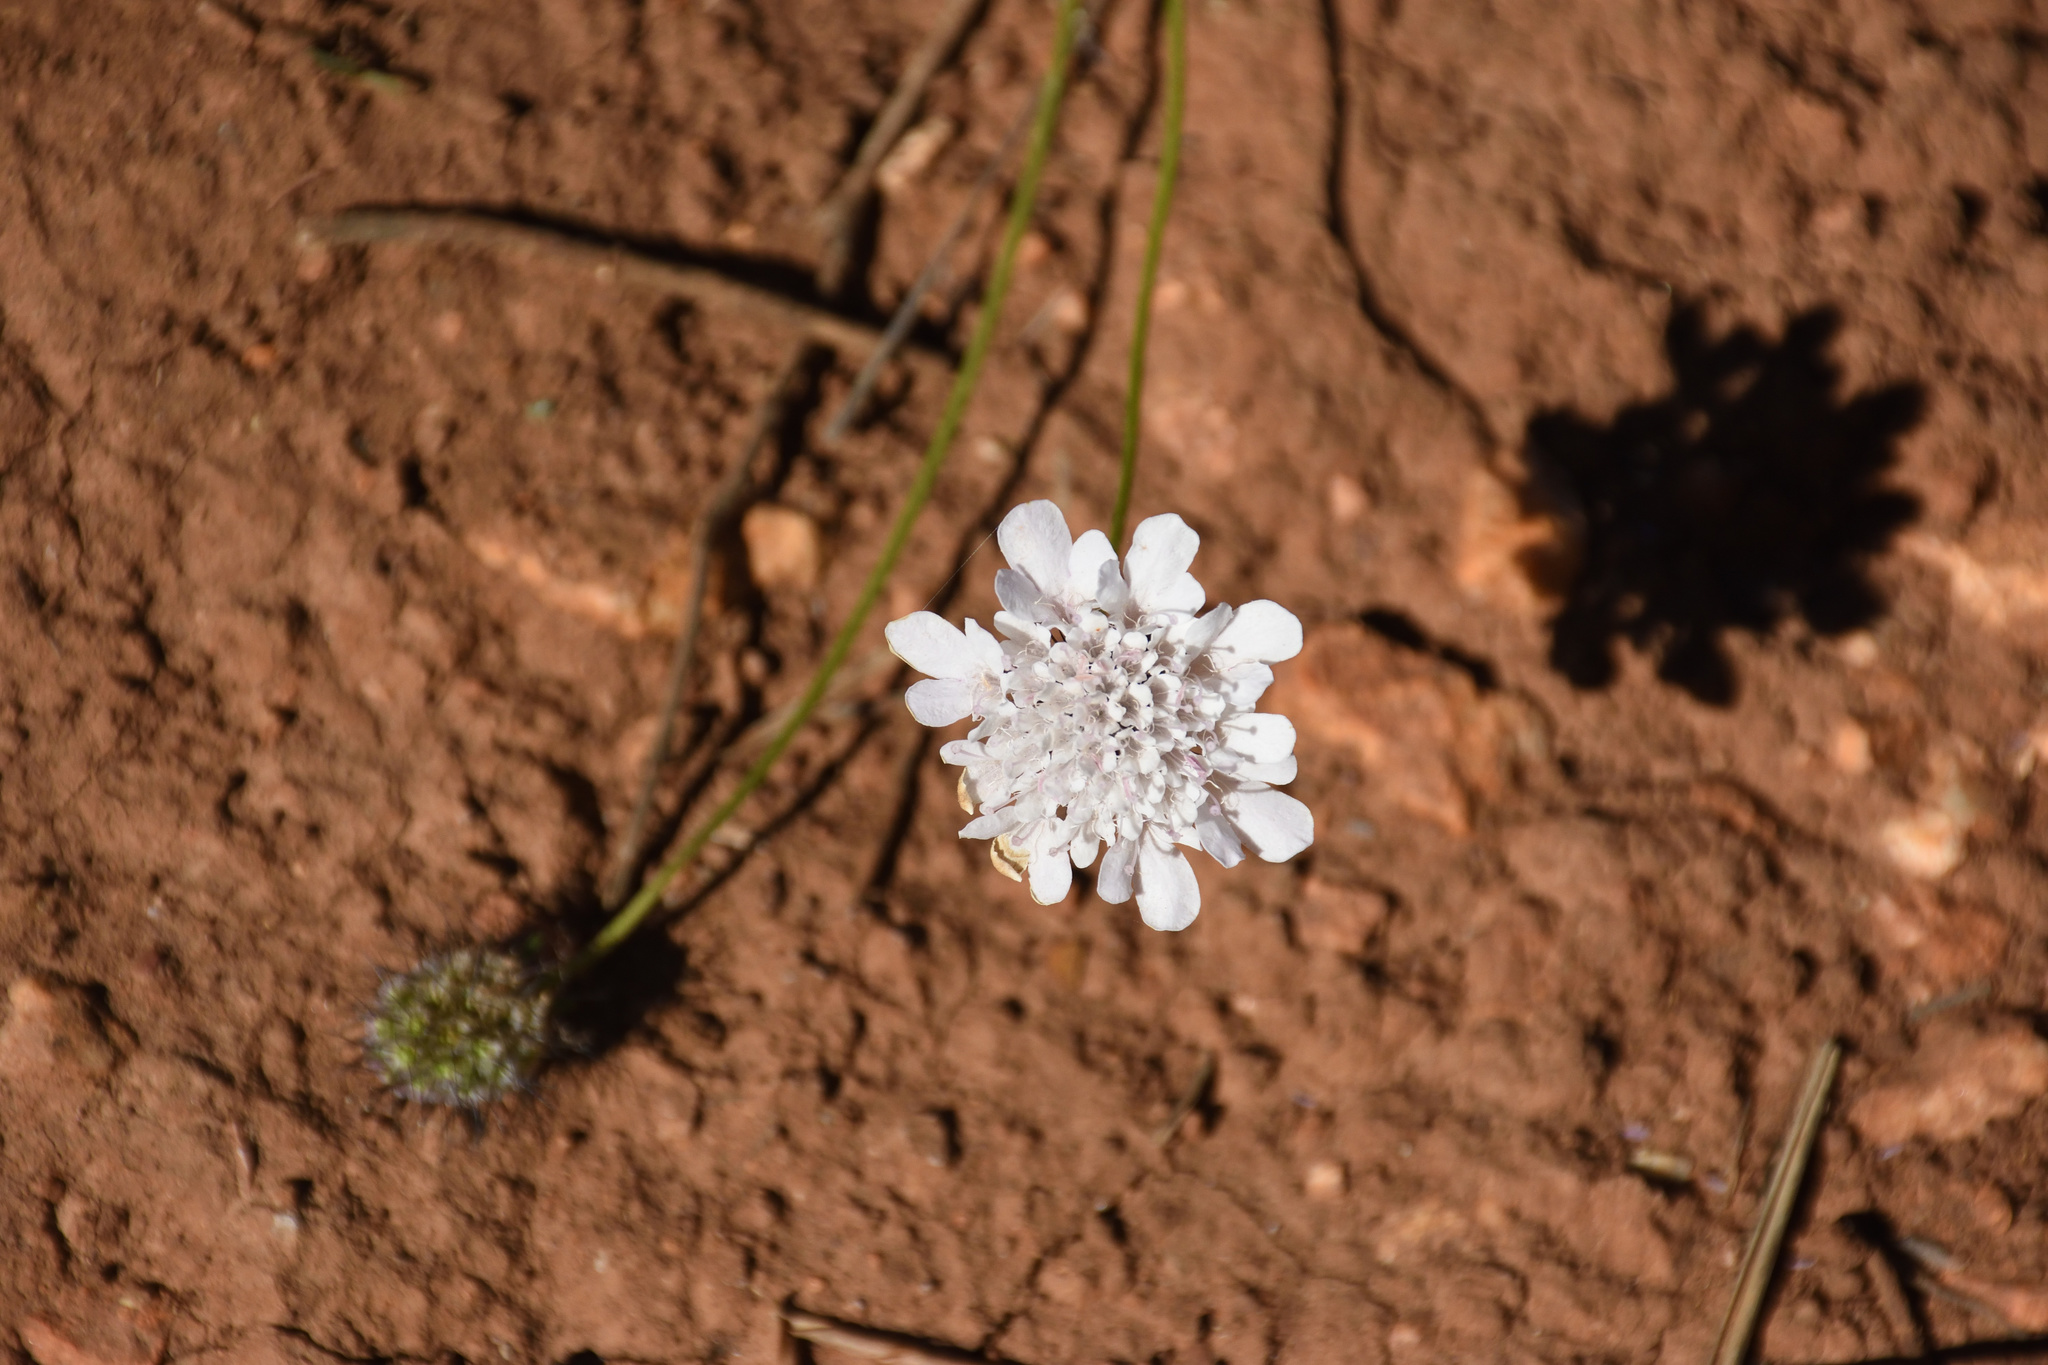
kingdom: Plantae
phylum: Tracheophyta
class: Magnoliopsida
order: Dipsacales
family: Caprifoliaceae
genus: Scabiosa
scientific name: Scabiosa columbaria
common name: Small scabious
